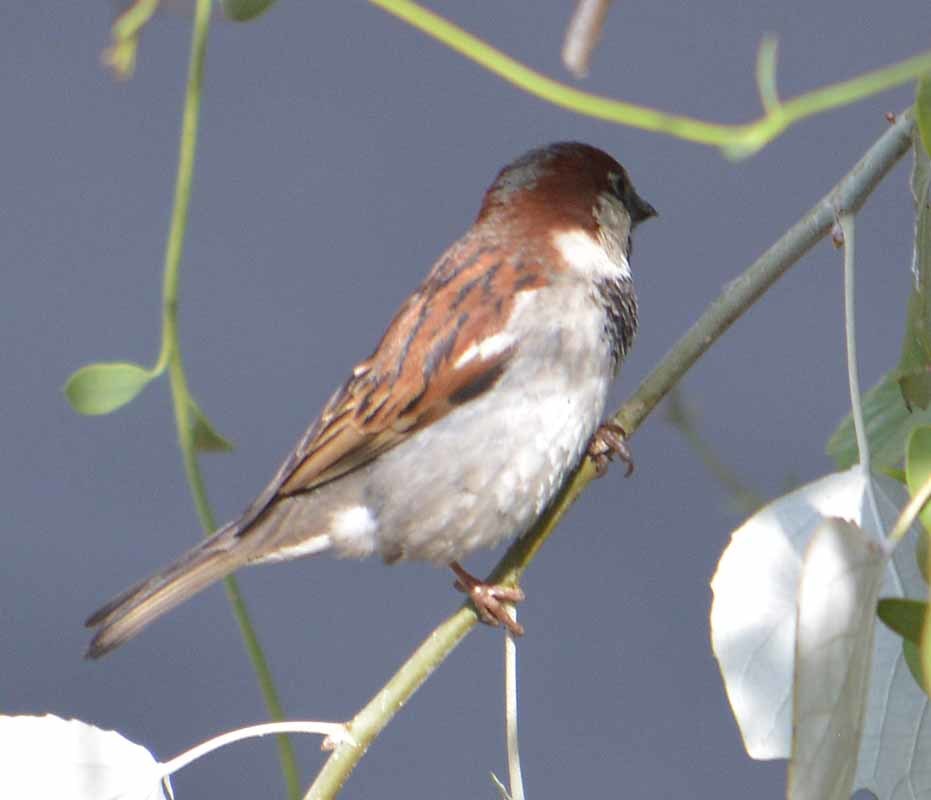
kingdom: Animalia
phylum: Chordata
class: Aves
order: Passeriformes
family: Passeridae
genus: Passer
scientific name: Passer domesticus
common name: House sparrow
